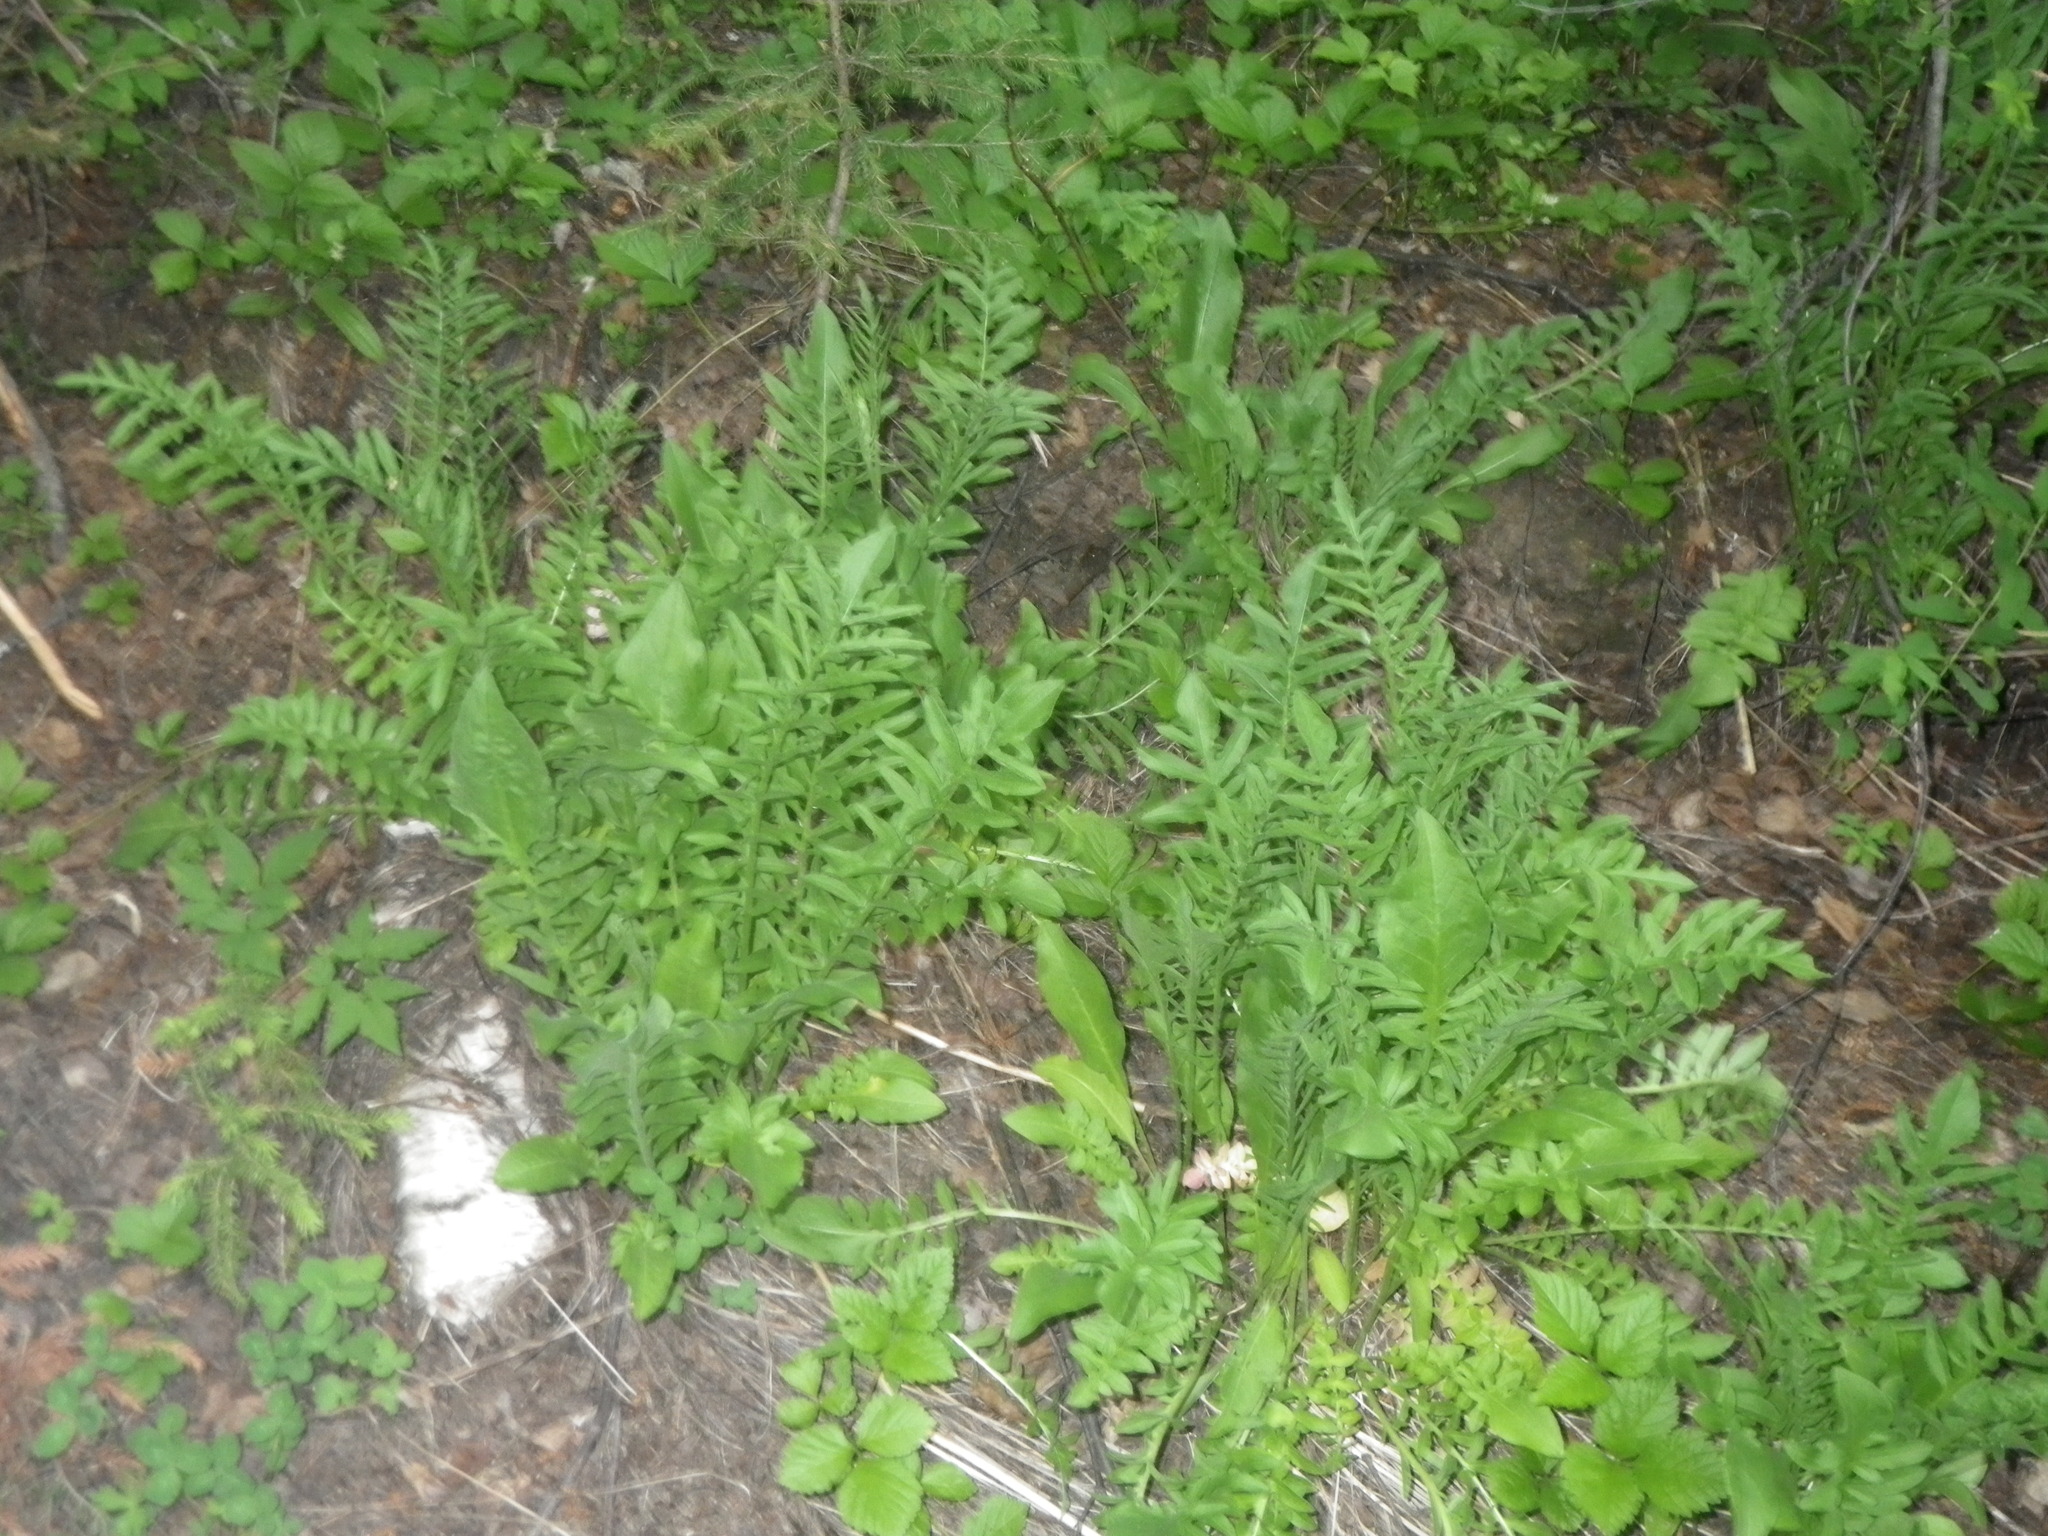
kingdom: Plantae
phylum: Tracheophyta
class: Magnoliopsida
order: Asterales
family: Asteraceae
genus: Tanacetum
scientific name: Tanacetum vulgare
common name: Common tansy
